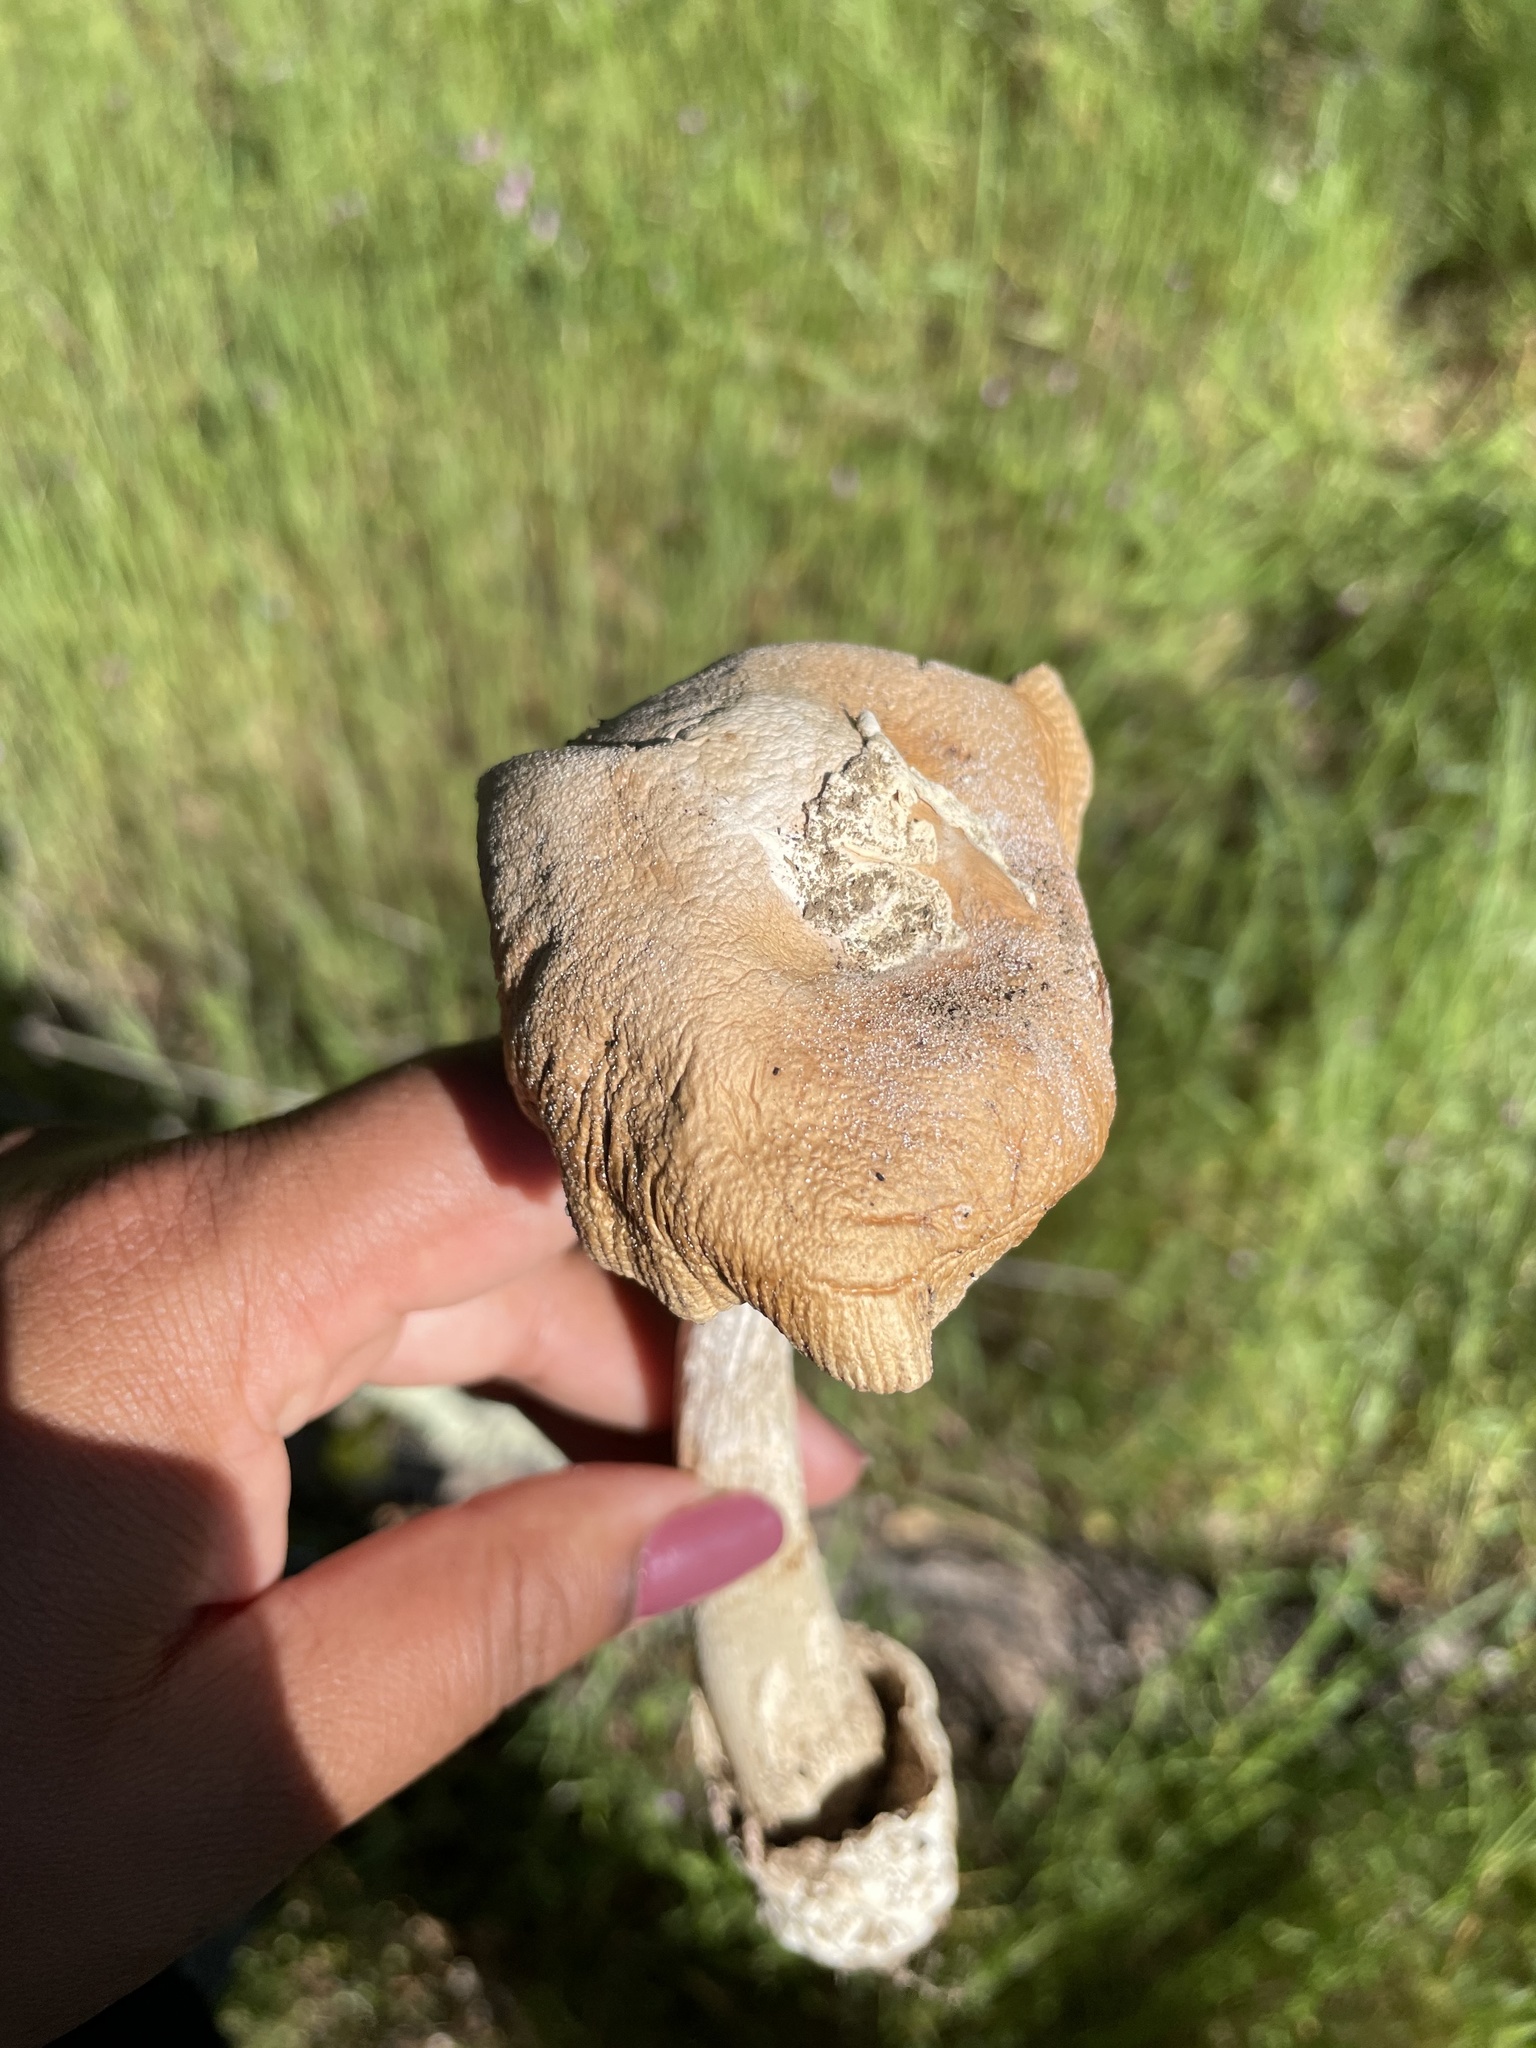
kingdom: Fungi
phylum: Basidiomycota
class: Agaricomycetes
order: Agaricales
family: Amanitaceae
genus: Amanita
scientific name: Amanita velosa
